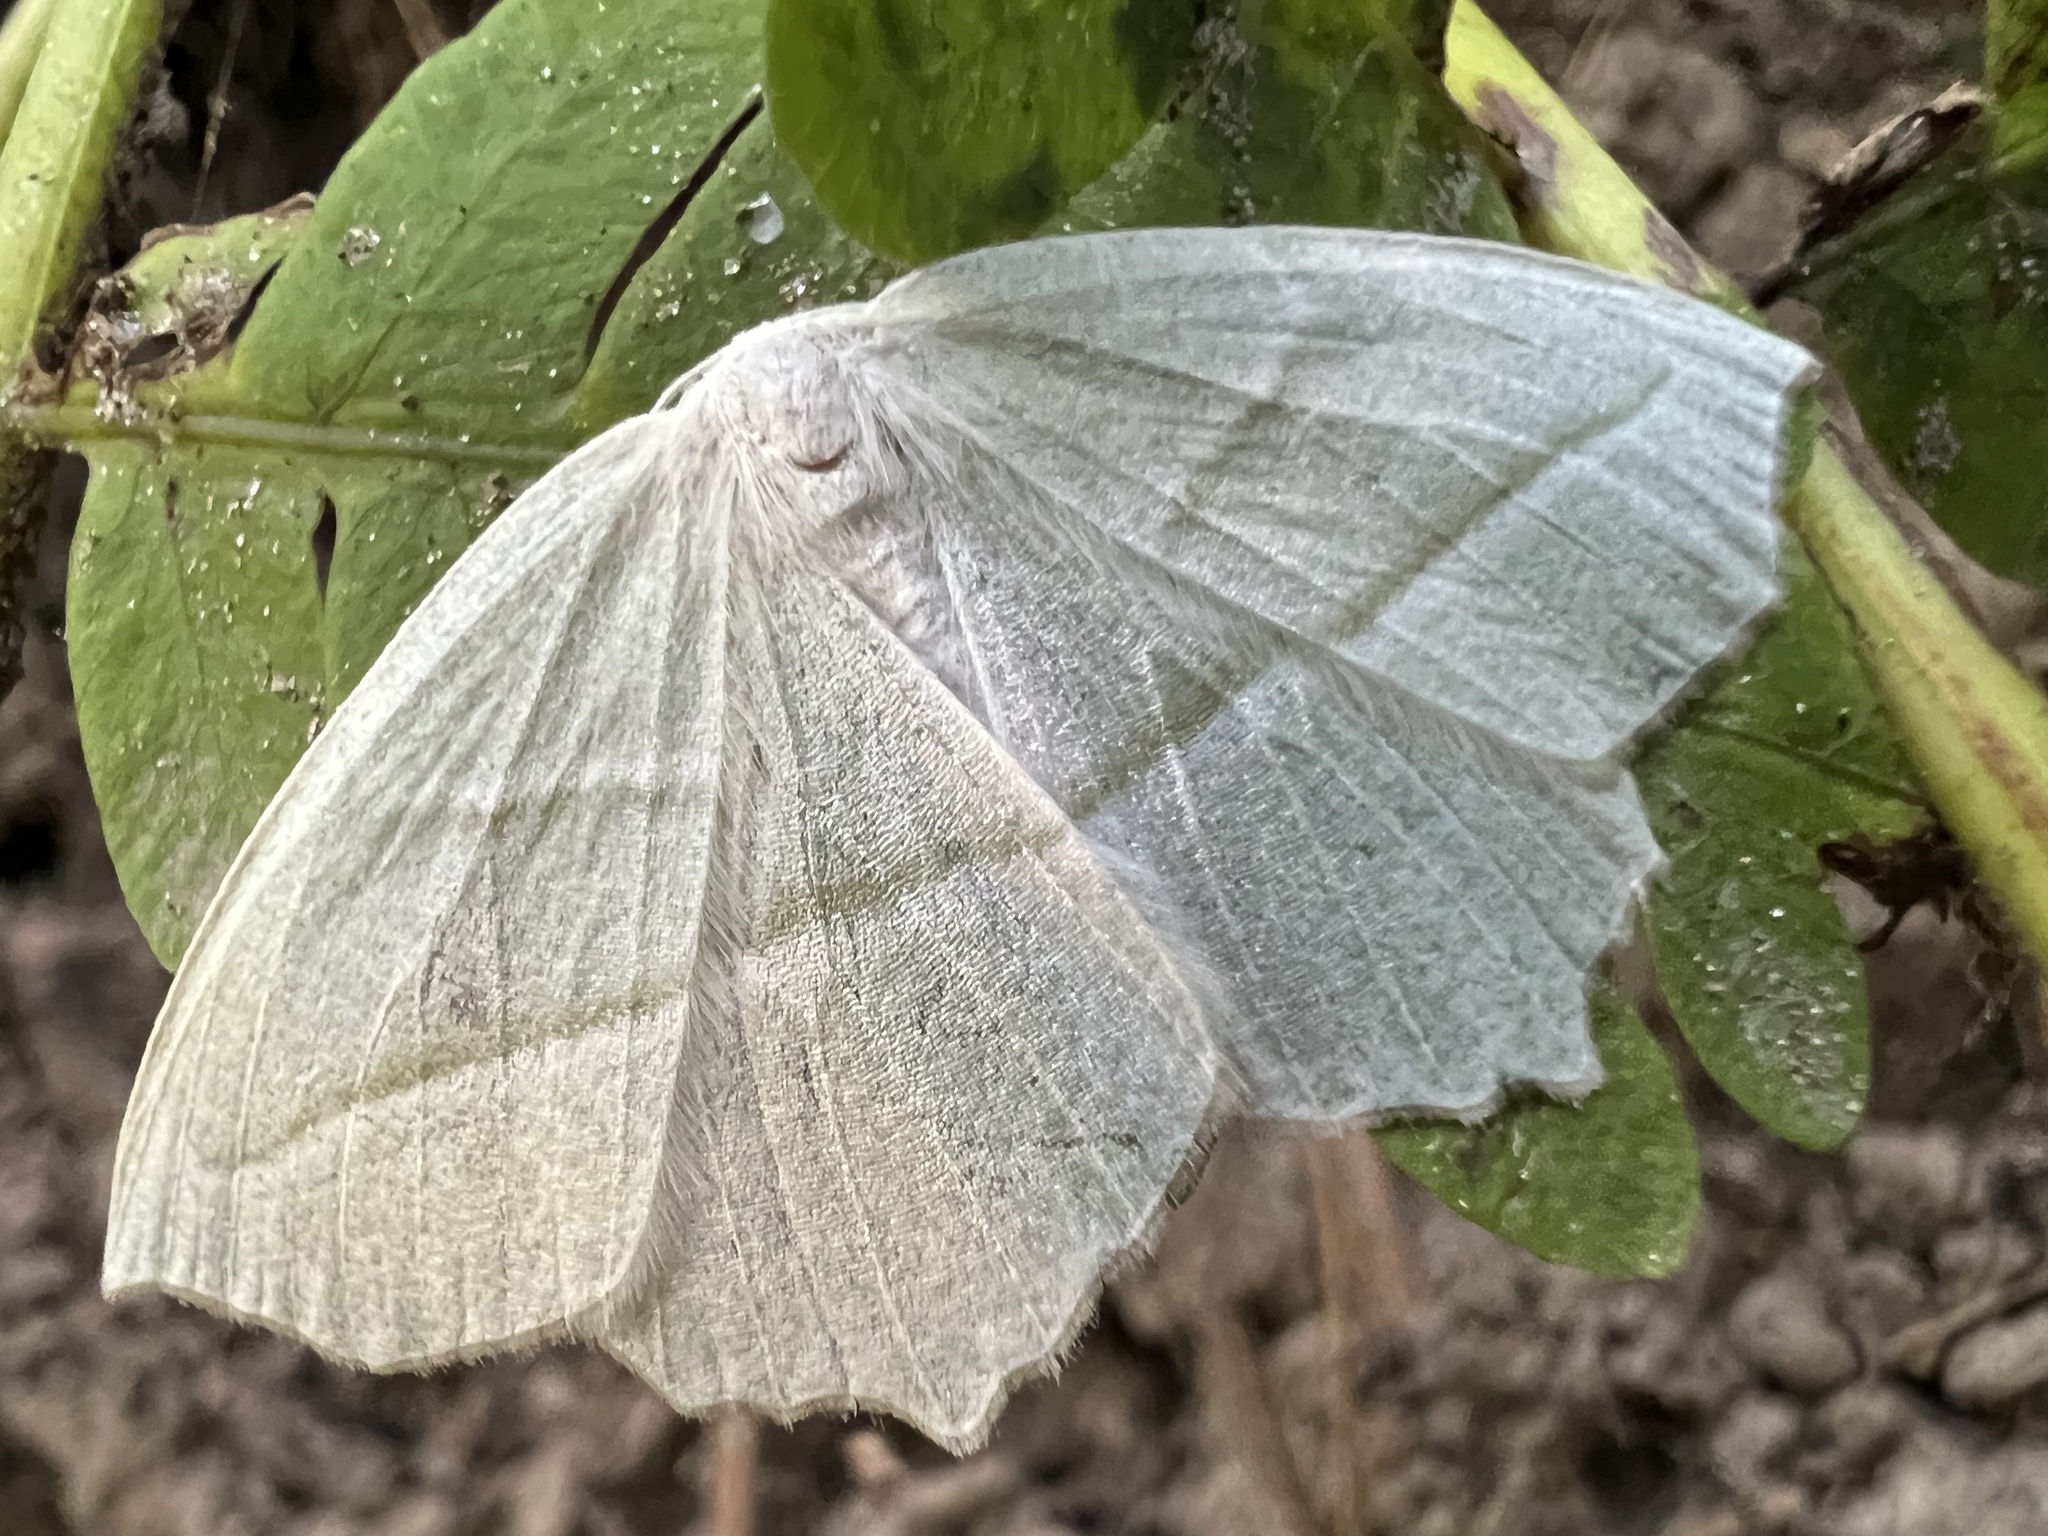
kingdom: Animalia
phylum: Arthropoda
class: Insecta
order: Lepidoptera
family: Geometridae
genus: Campaea
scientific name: Campaea perlata
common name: Fringed looper
